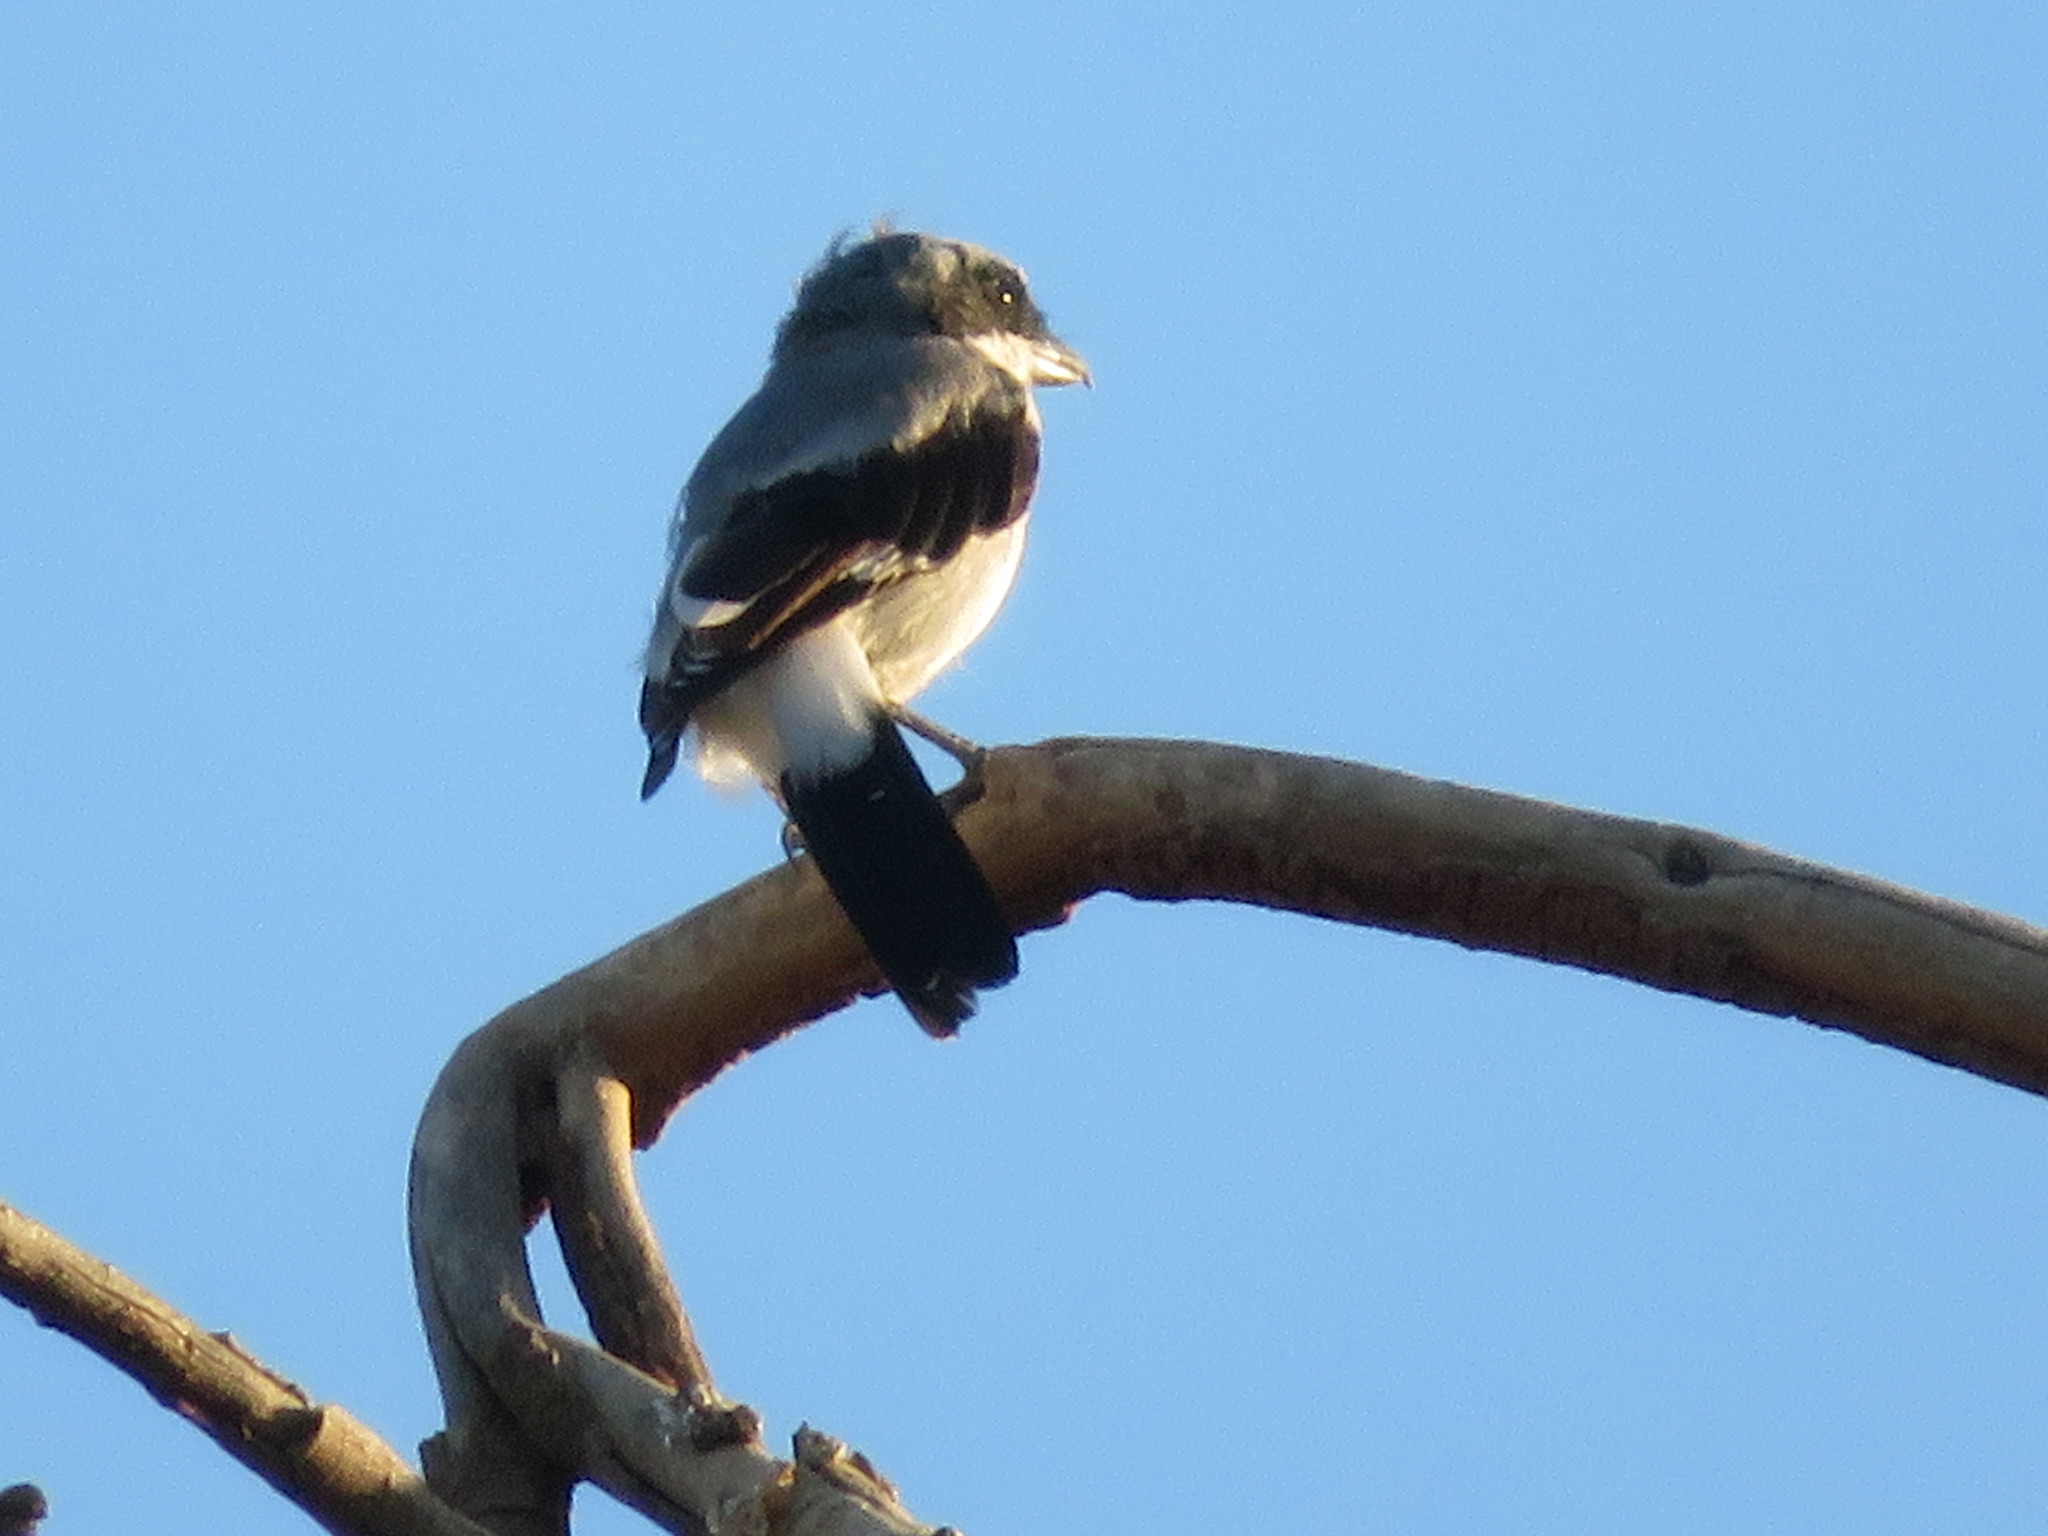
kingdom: Animalia
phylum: Chordata
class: Aves
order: Passeriformes
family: Laniidae
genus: Lanius
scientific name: Lanius ludovicianus
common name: Loggerhead shrike
